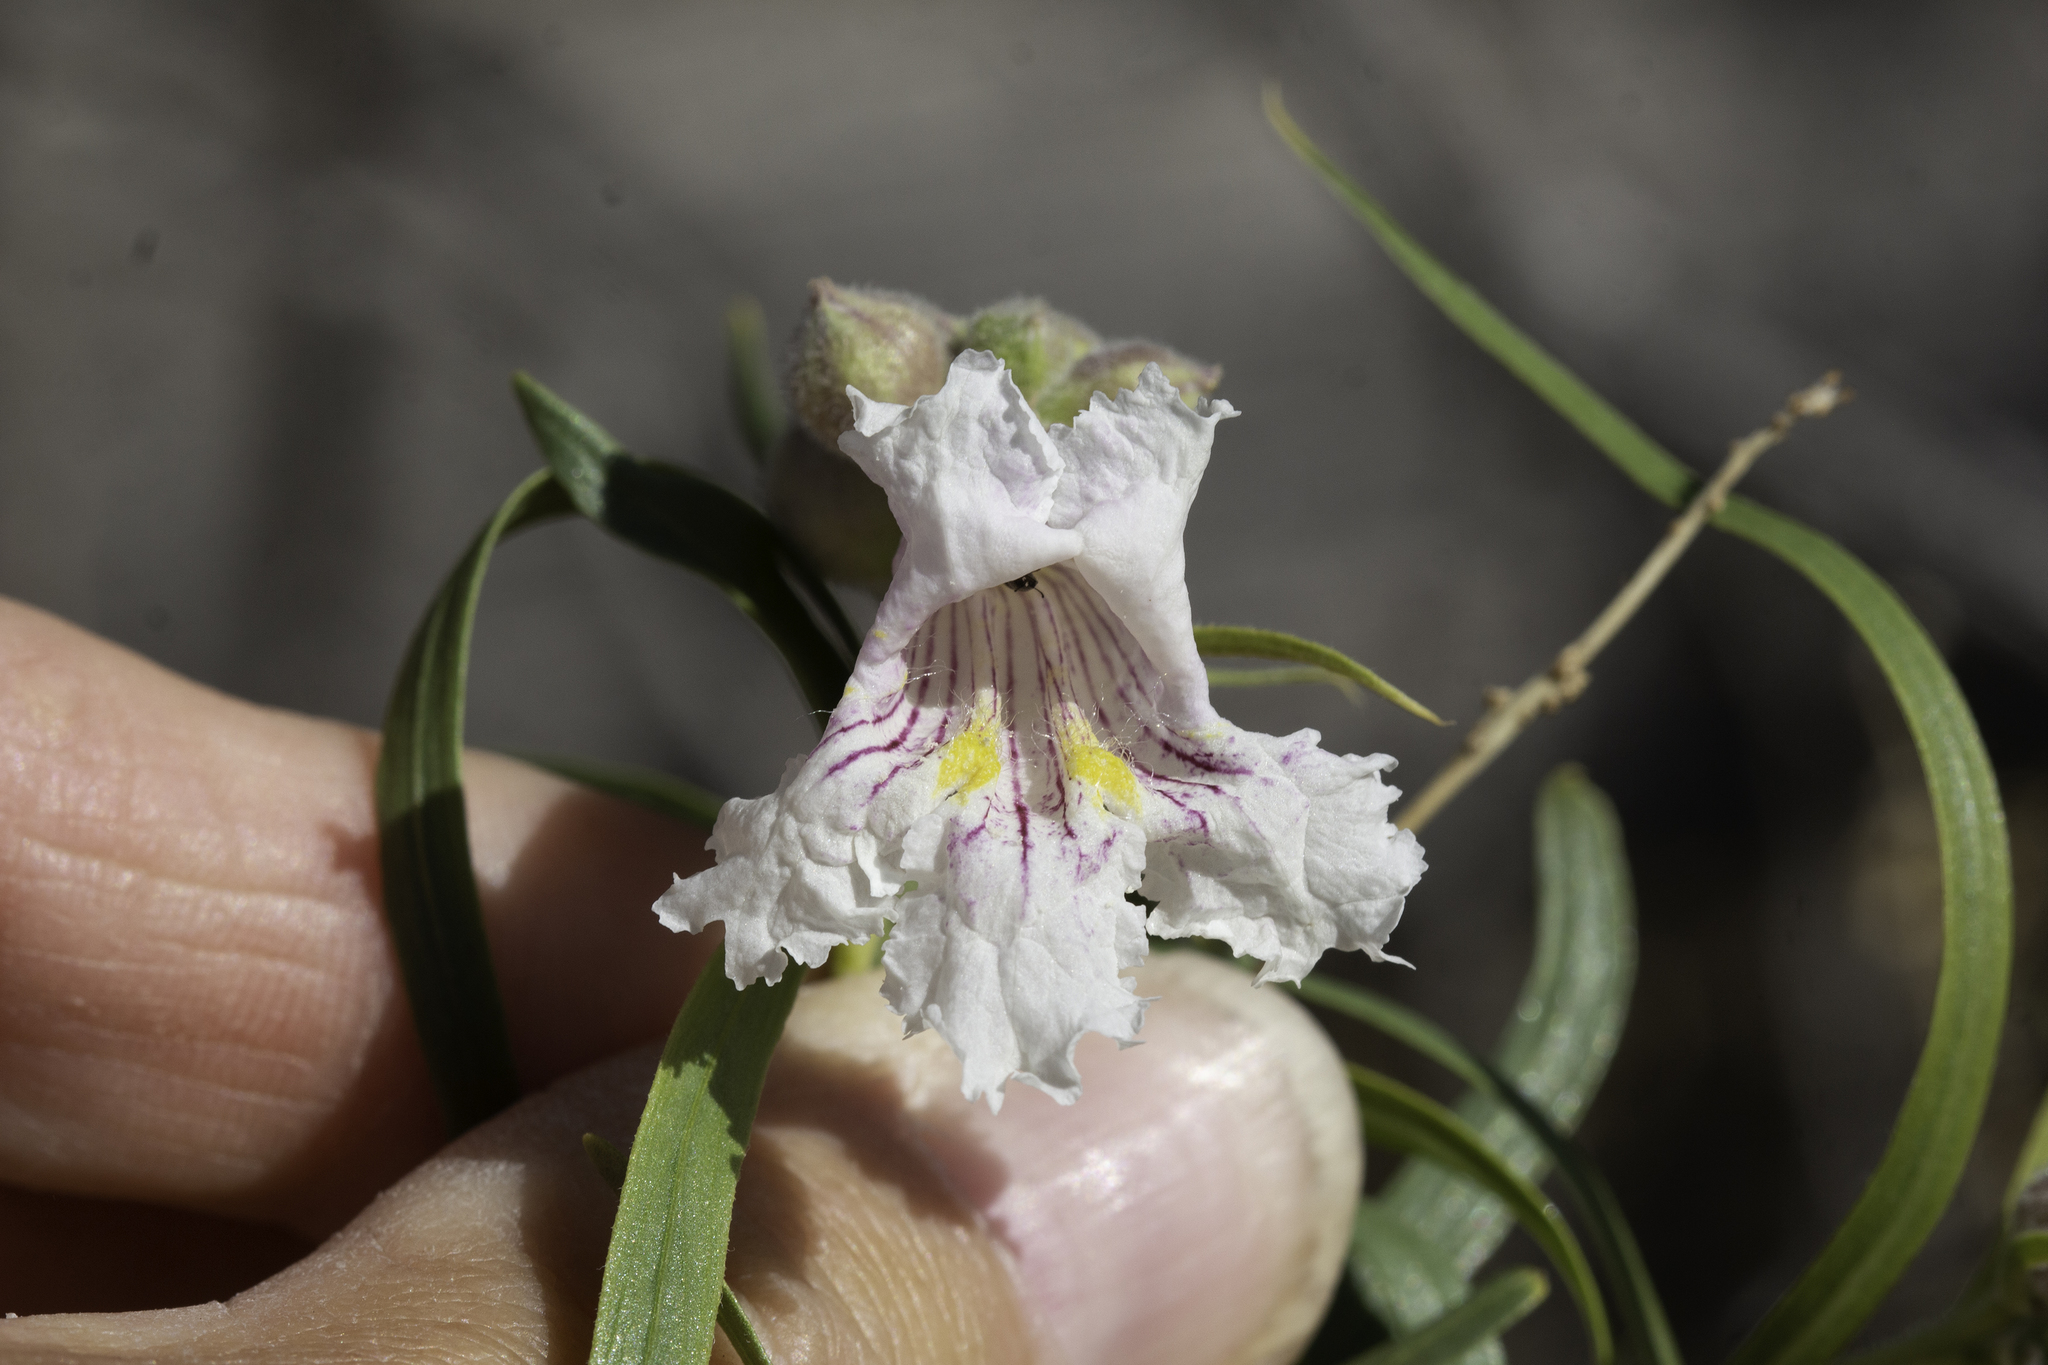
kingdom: Plantae
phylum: Tracheophyta
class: Magnoliopsida
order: Lamiales
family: Bignoniaceae
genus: Chilopsis
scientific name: Chilopsis linearis
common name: Desert-willow
